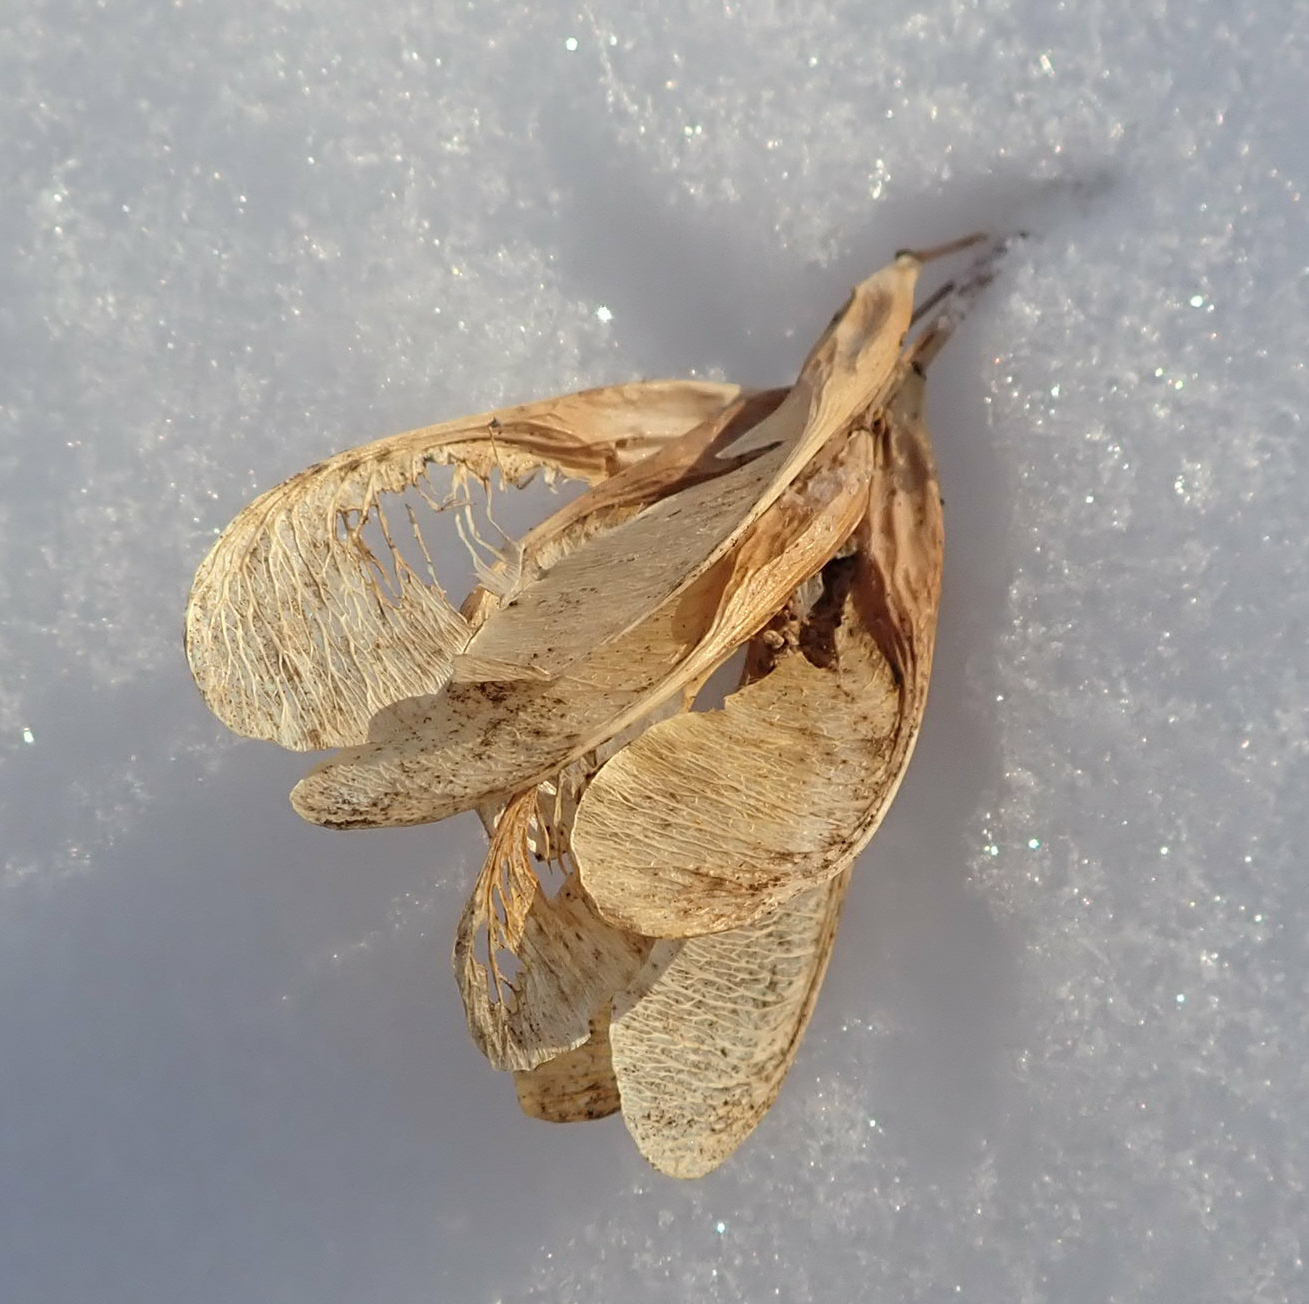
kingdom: Plantae
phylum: Tracheophyta
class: Magnoliopsida
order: Sapindales
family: Sapindaceae
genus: Acer
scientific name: Acer negundo
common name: Ashleaf maple
